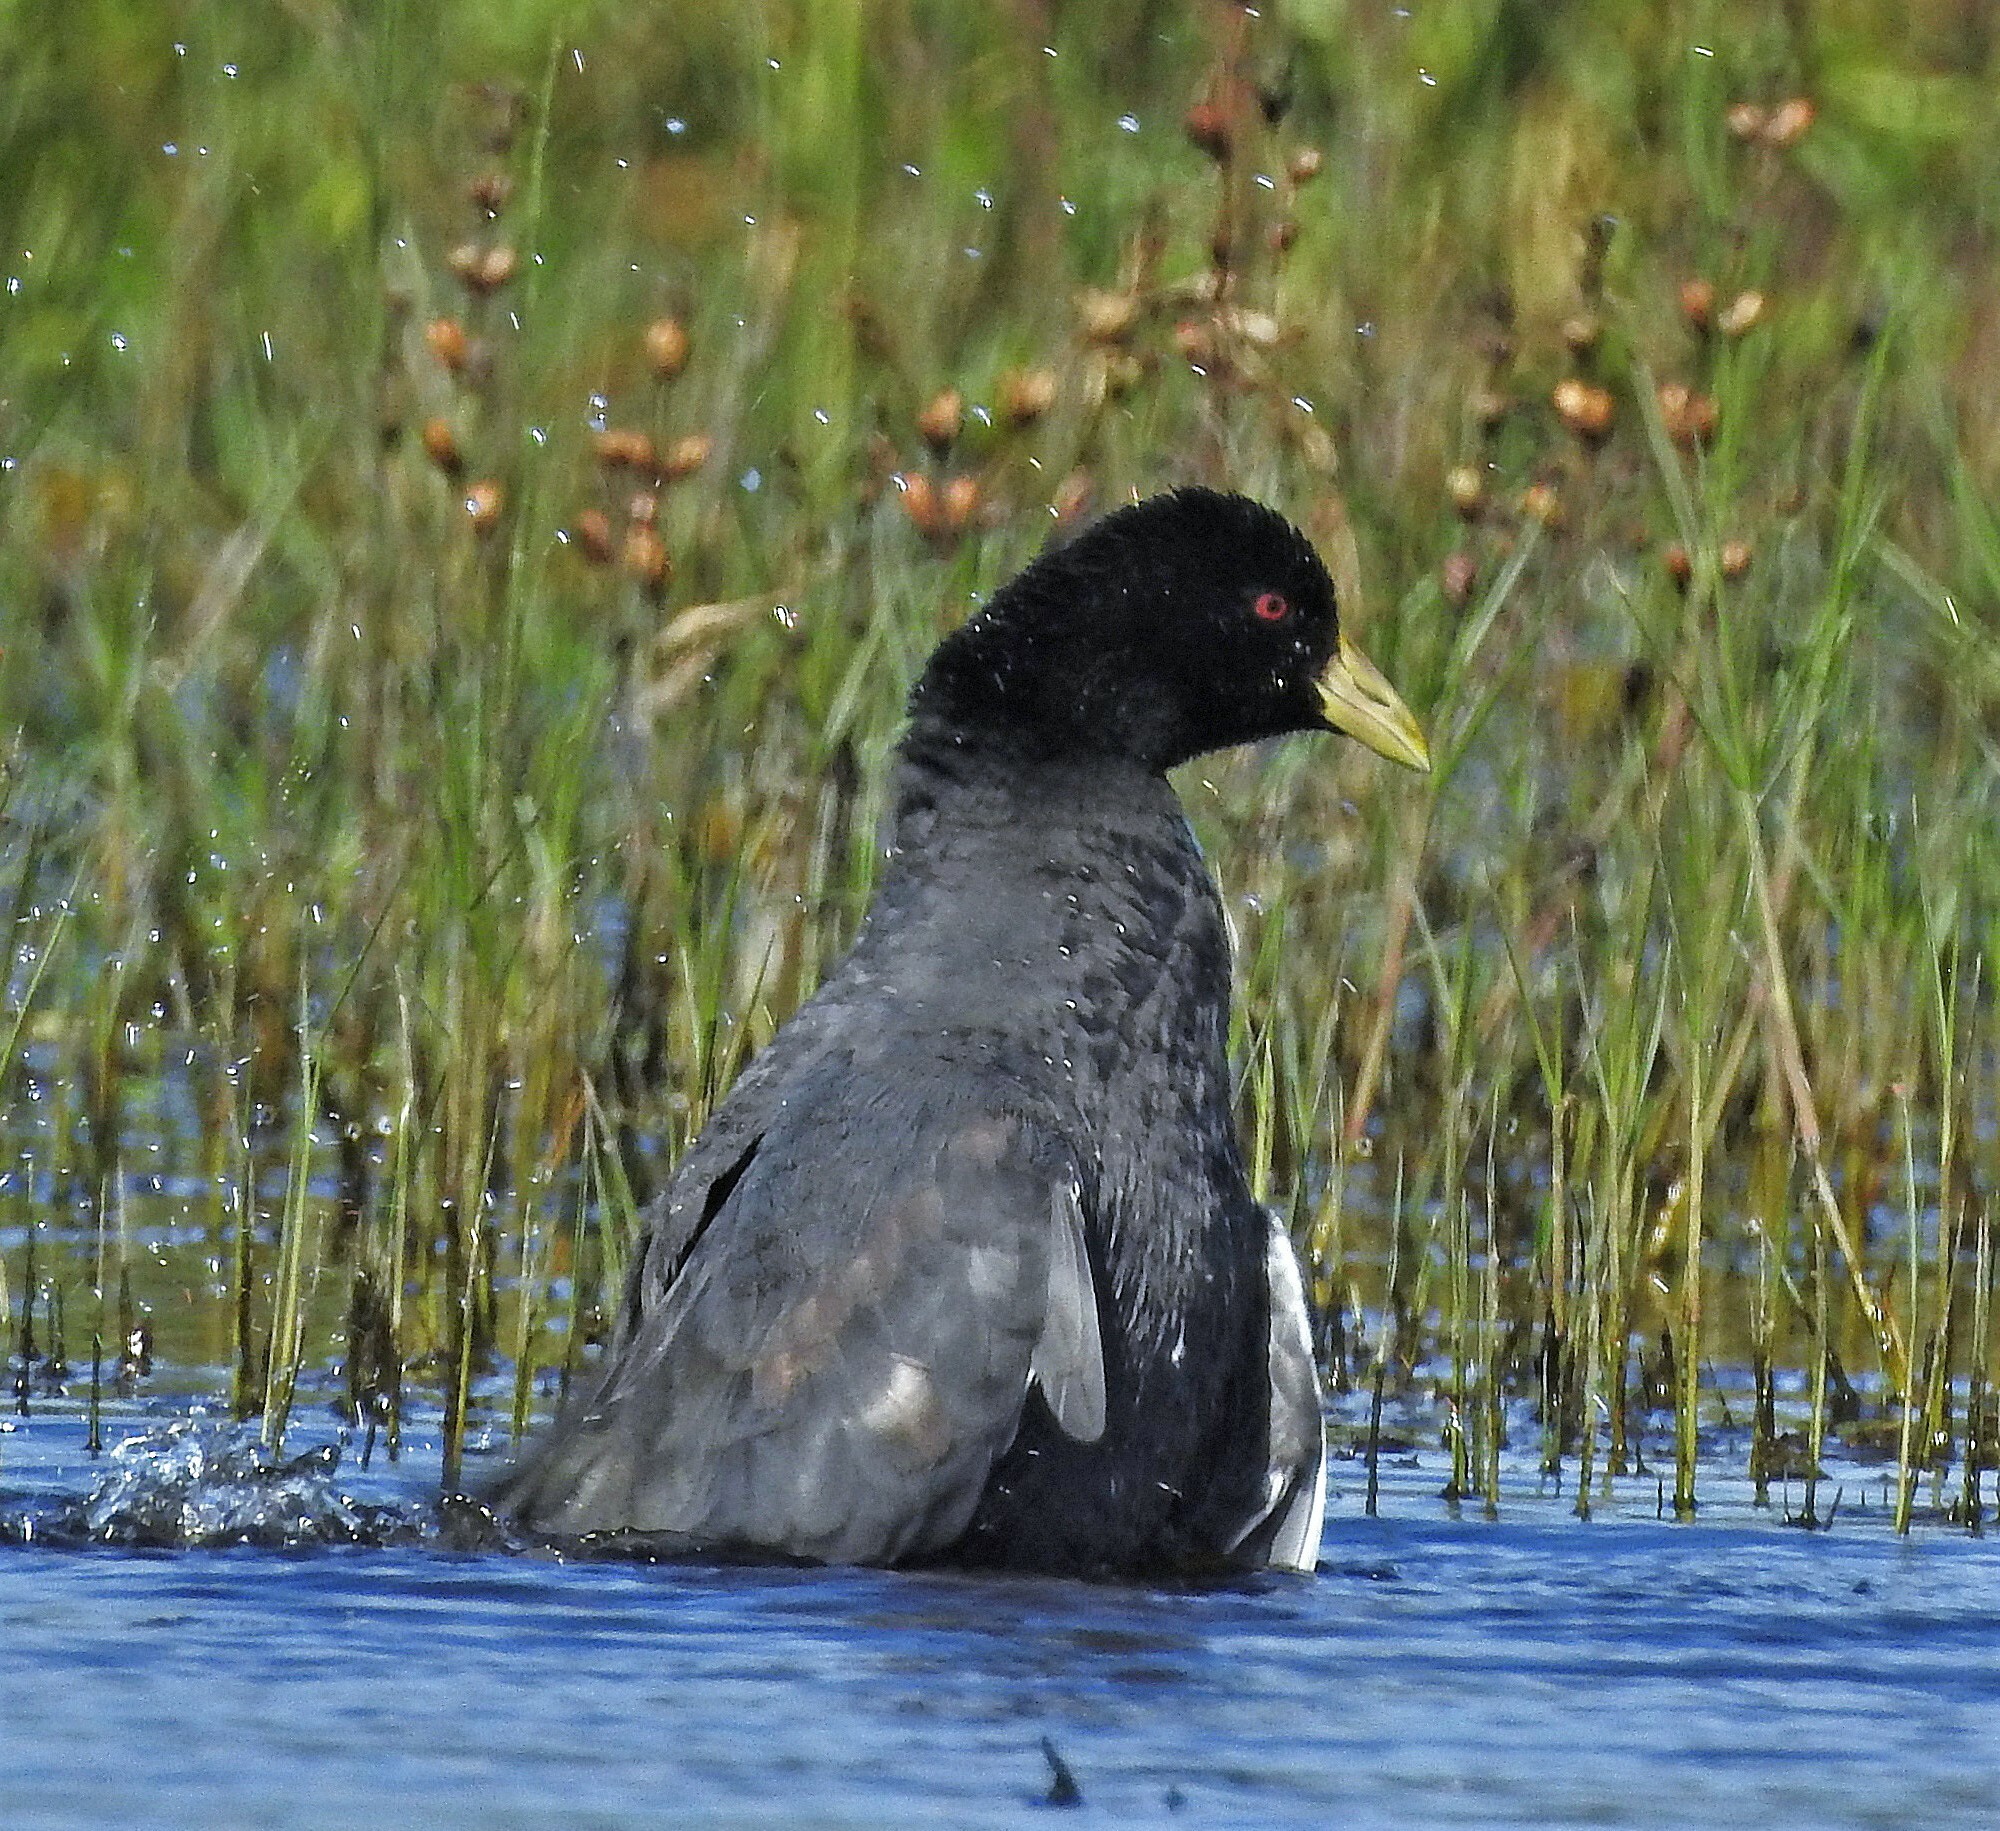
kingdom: Animalia
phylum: Chordata
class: Aves
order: Gruiformes
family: Rallidae
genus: Fulica
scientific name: Fulica leucoptera
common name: White-winged coot
